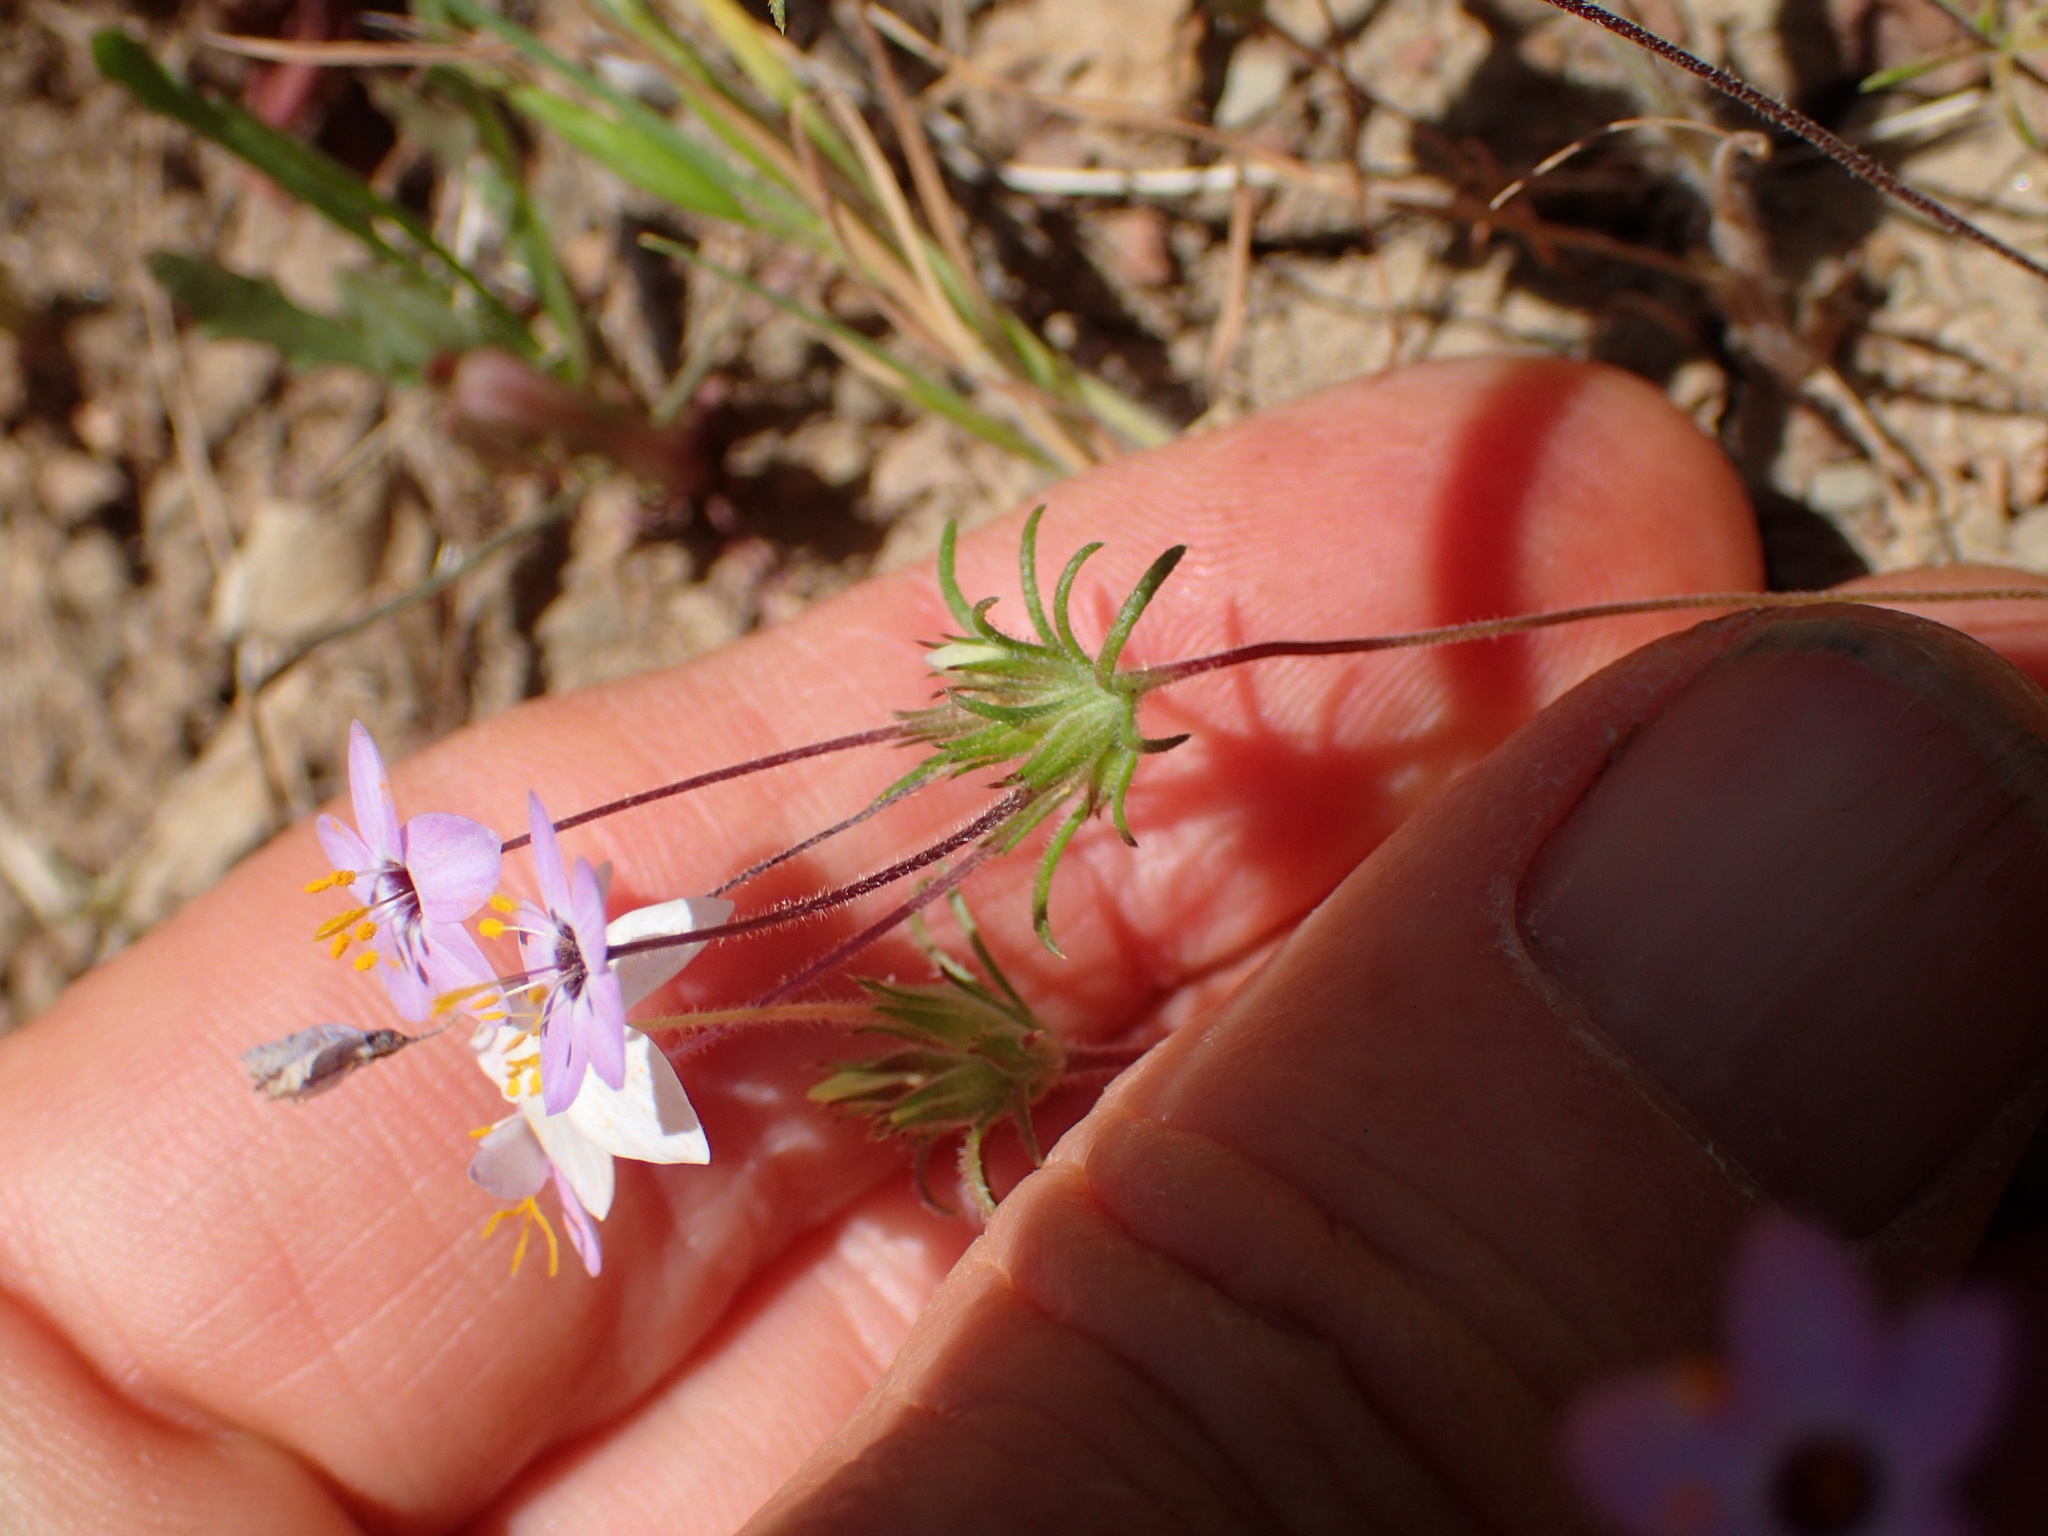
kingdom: Plantae
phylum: Tracheophyta
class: Magnoliopsida
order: Ericales
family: Polemoniaceae
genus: Leptosiphon
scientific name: Leptosiphon parviflorus
